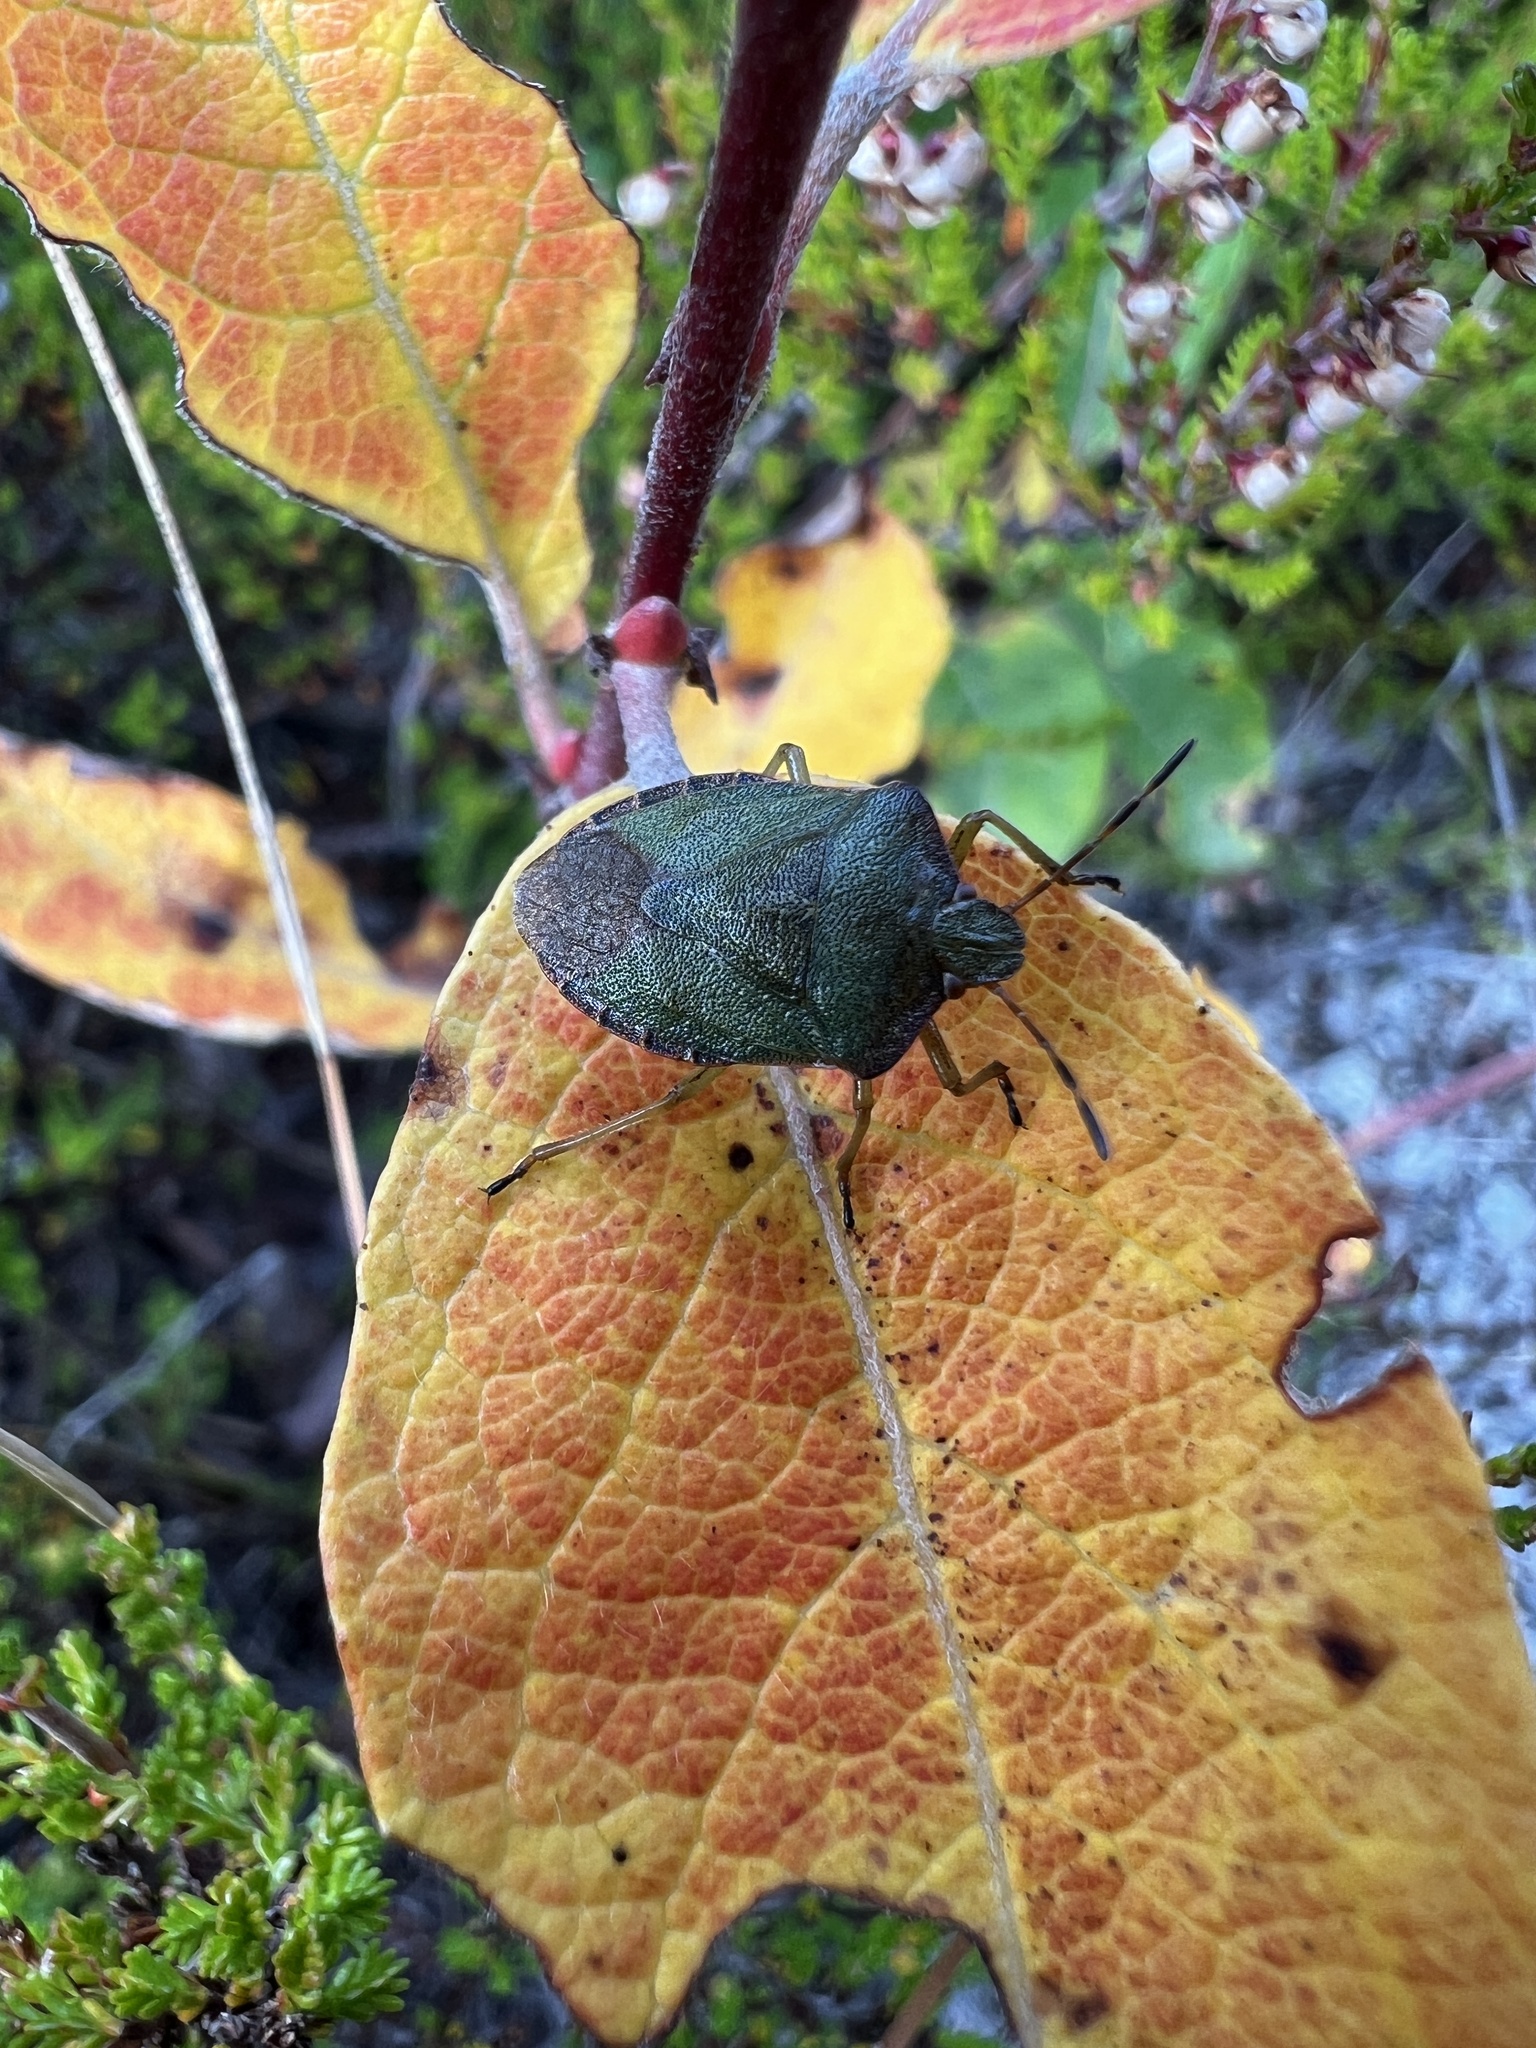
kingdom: Animalia
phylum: Arthropoda
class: Insecta
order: Hemiptera
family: Pentatomidae
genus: Palomena
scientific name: Palomena prasina
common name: Green shieldbug
